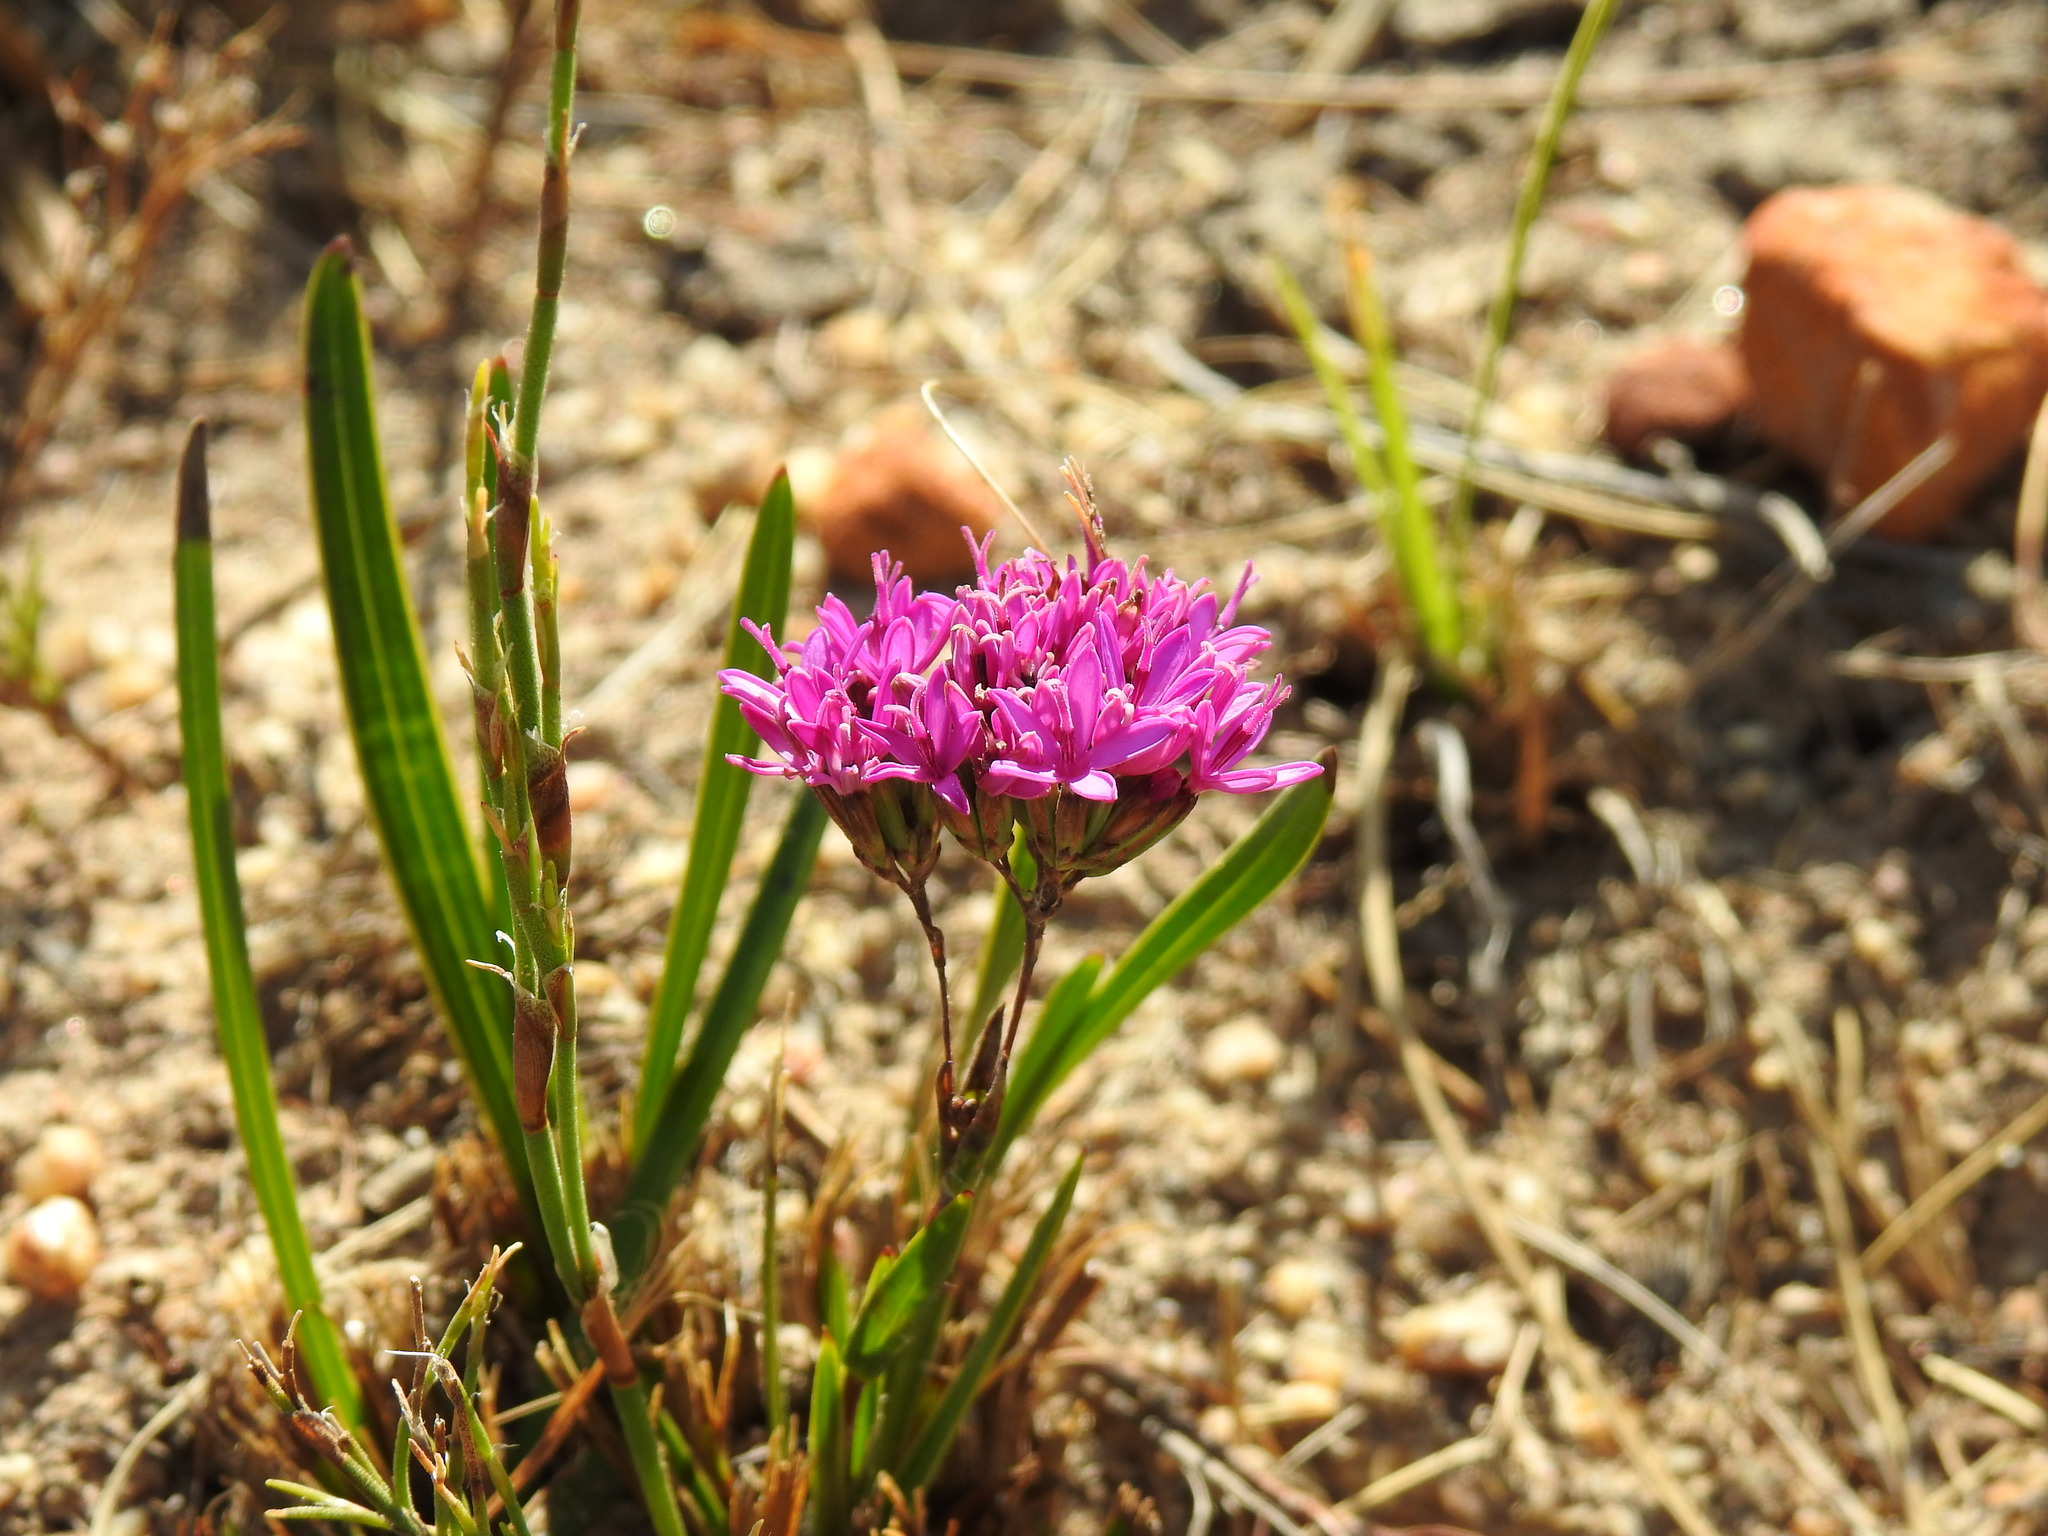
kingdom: Plantae
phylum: Tracheophyta
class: Magnoliopsida
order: Asterales
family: Asteraceae
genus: Corymbium
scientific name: Corymbium africanum
